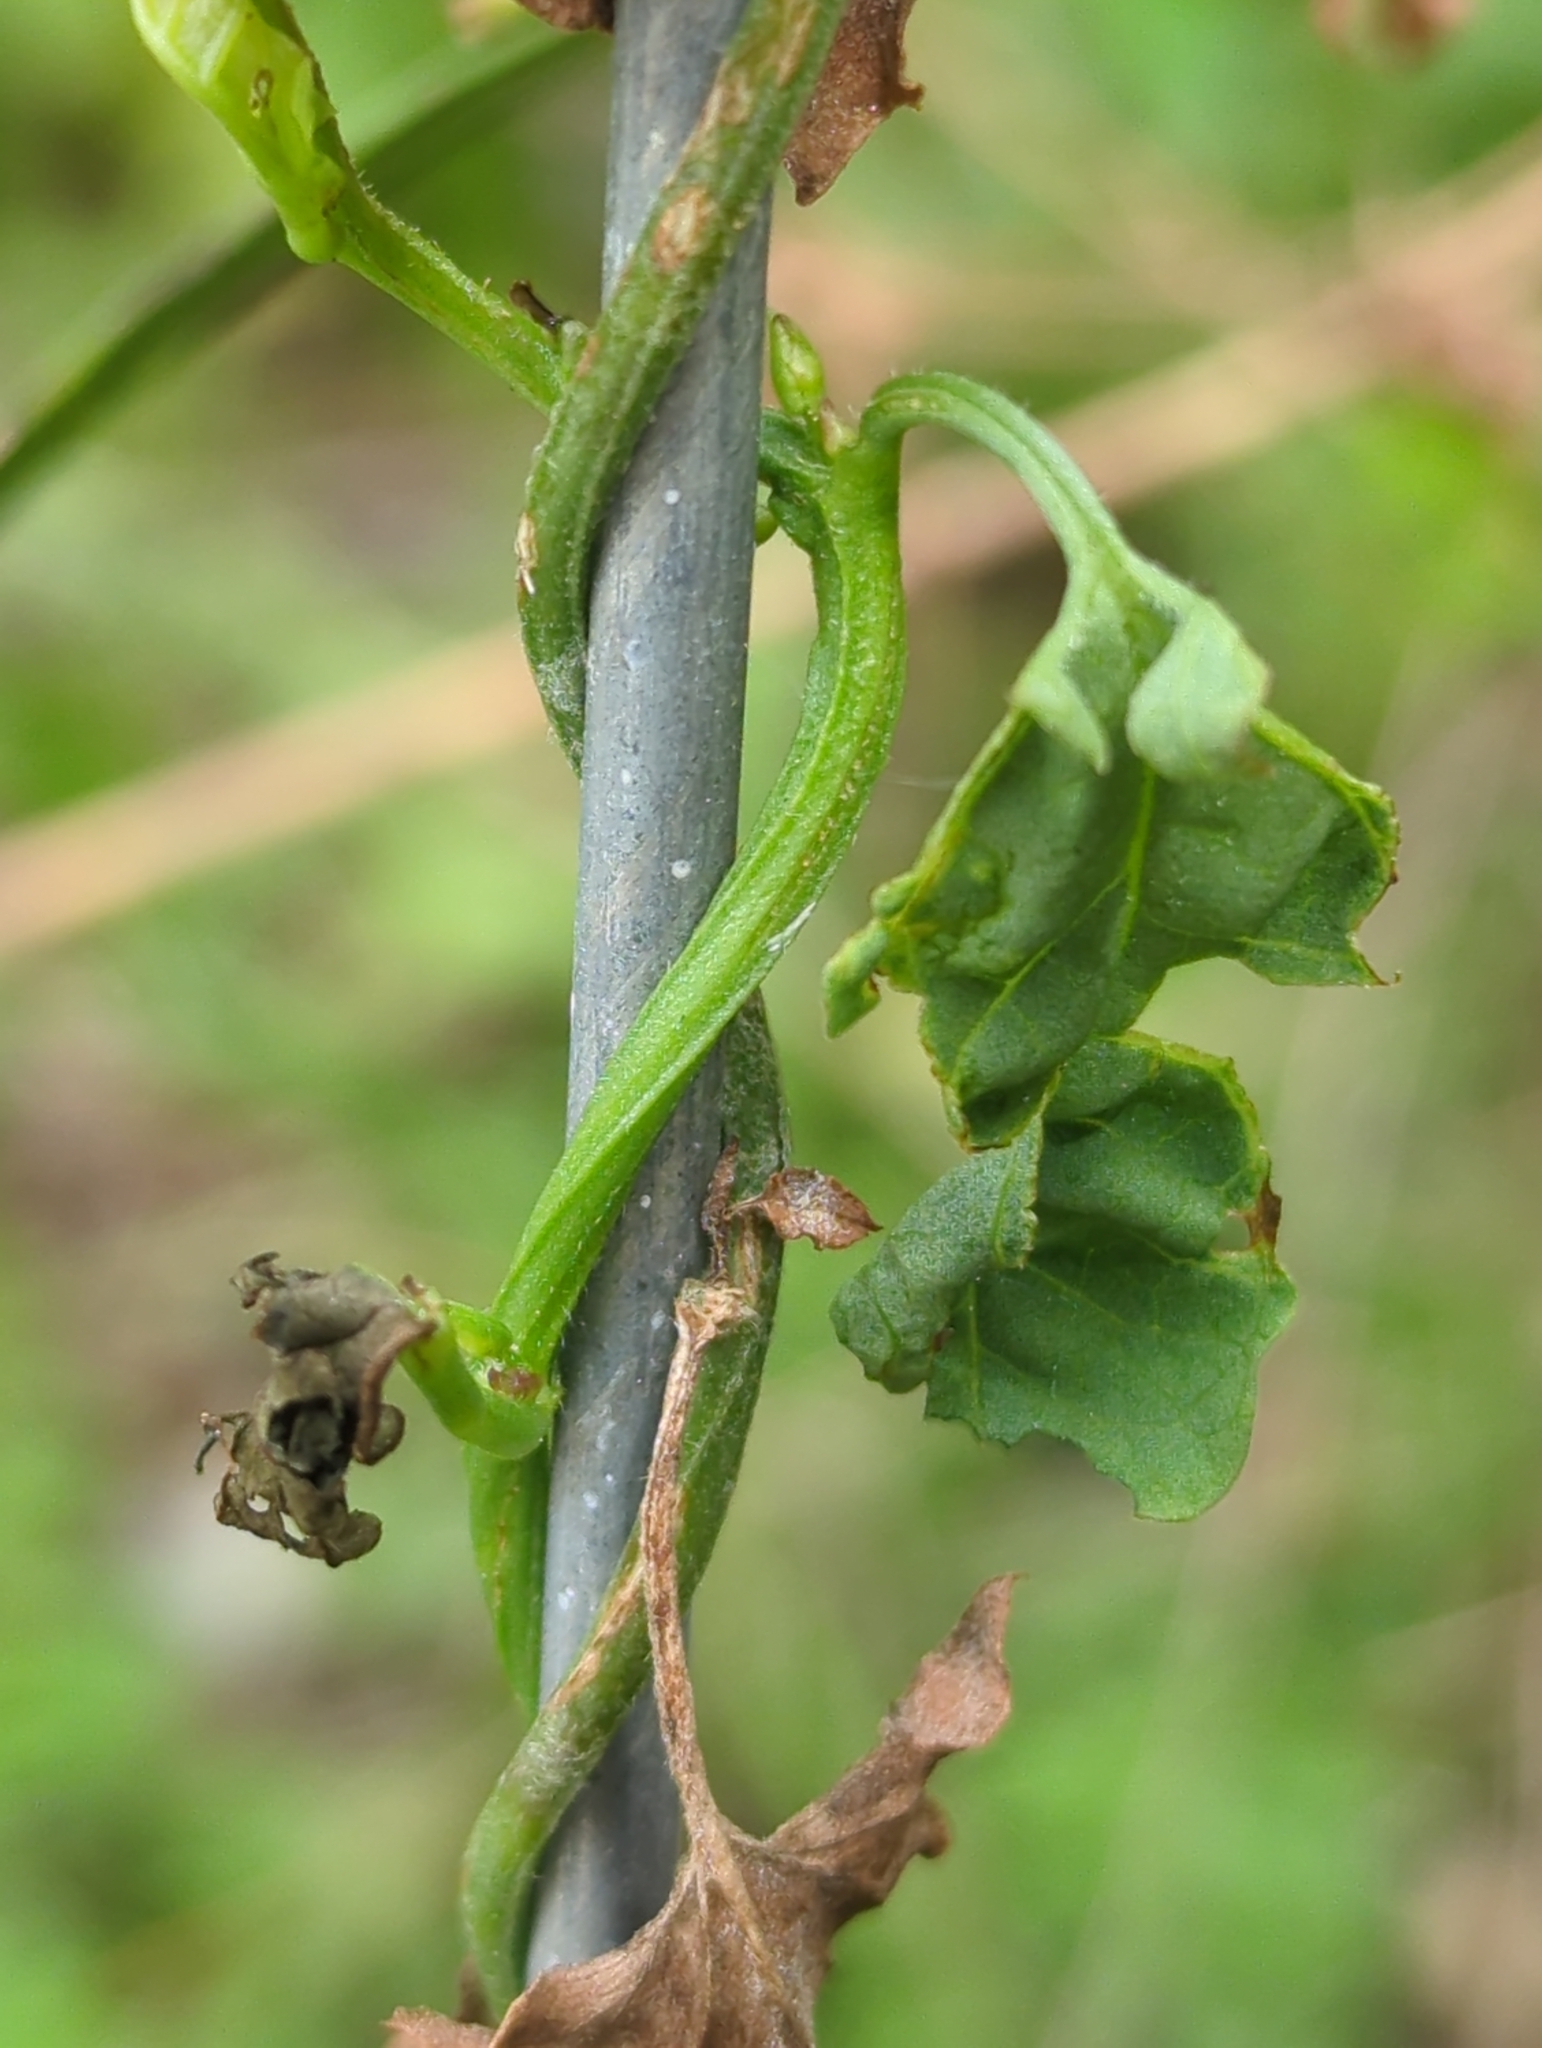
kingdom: Plantae
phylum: Tracheophyta
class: Magnoliopsida
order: Solanales
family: Convolvulaceae
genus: Convolvulus
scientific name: Convolvulus arvensis
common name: Field bindweed
